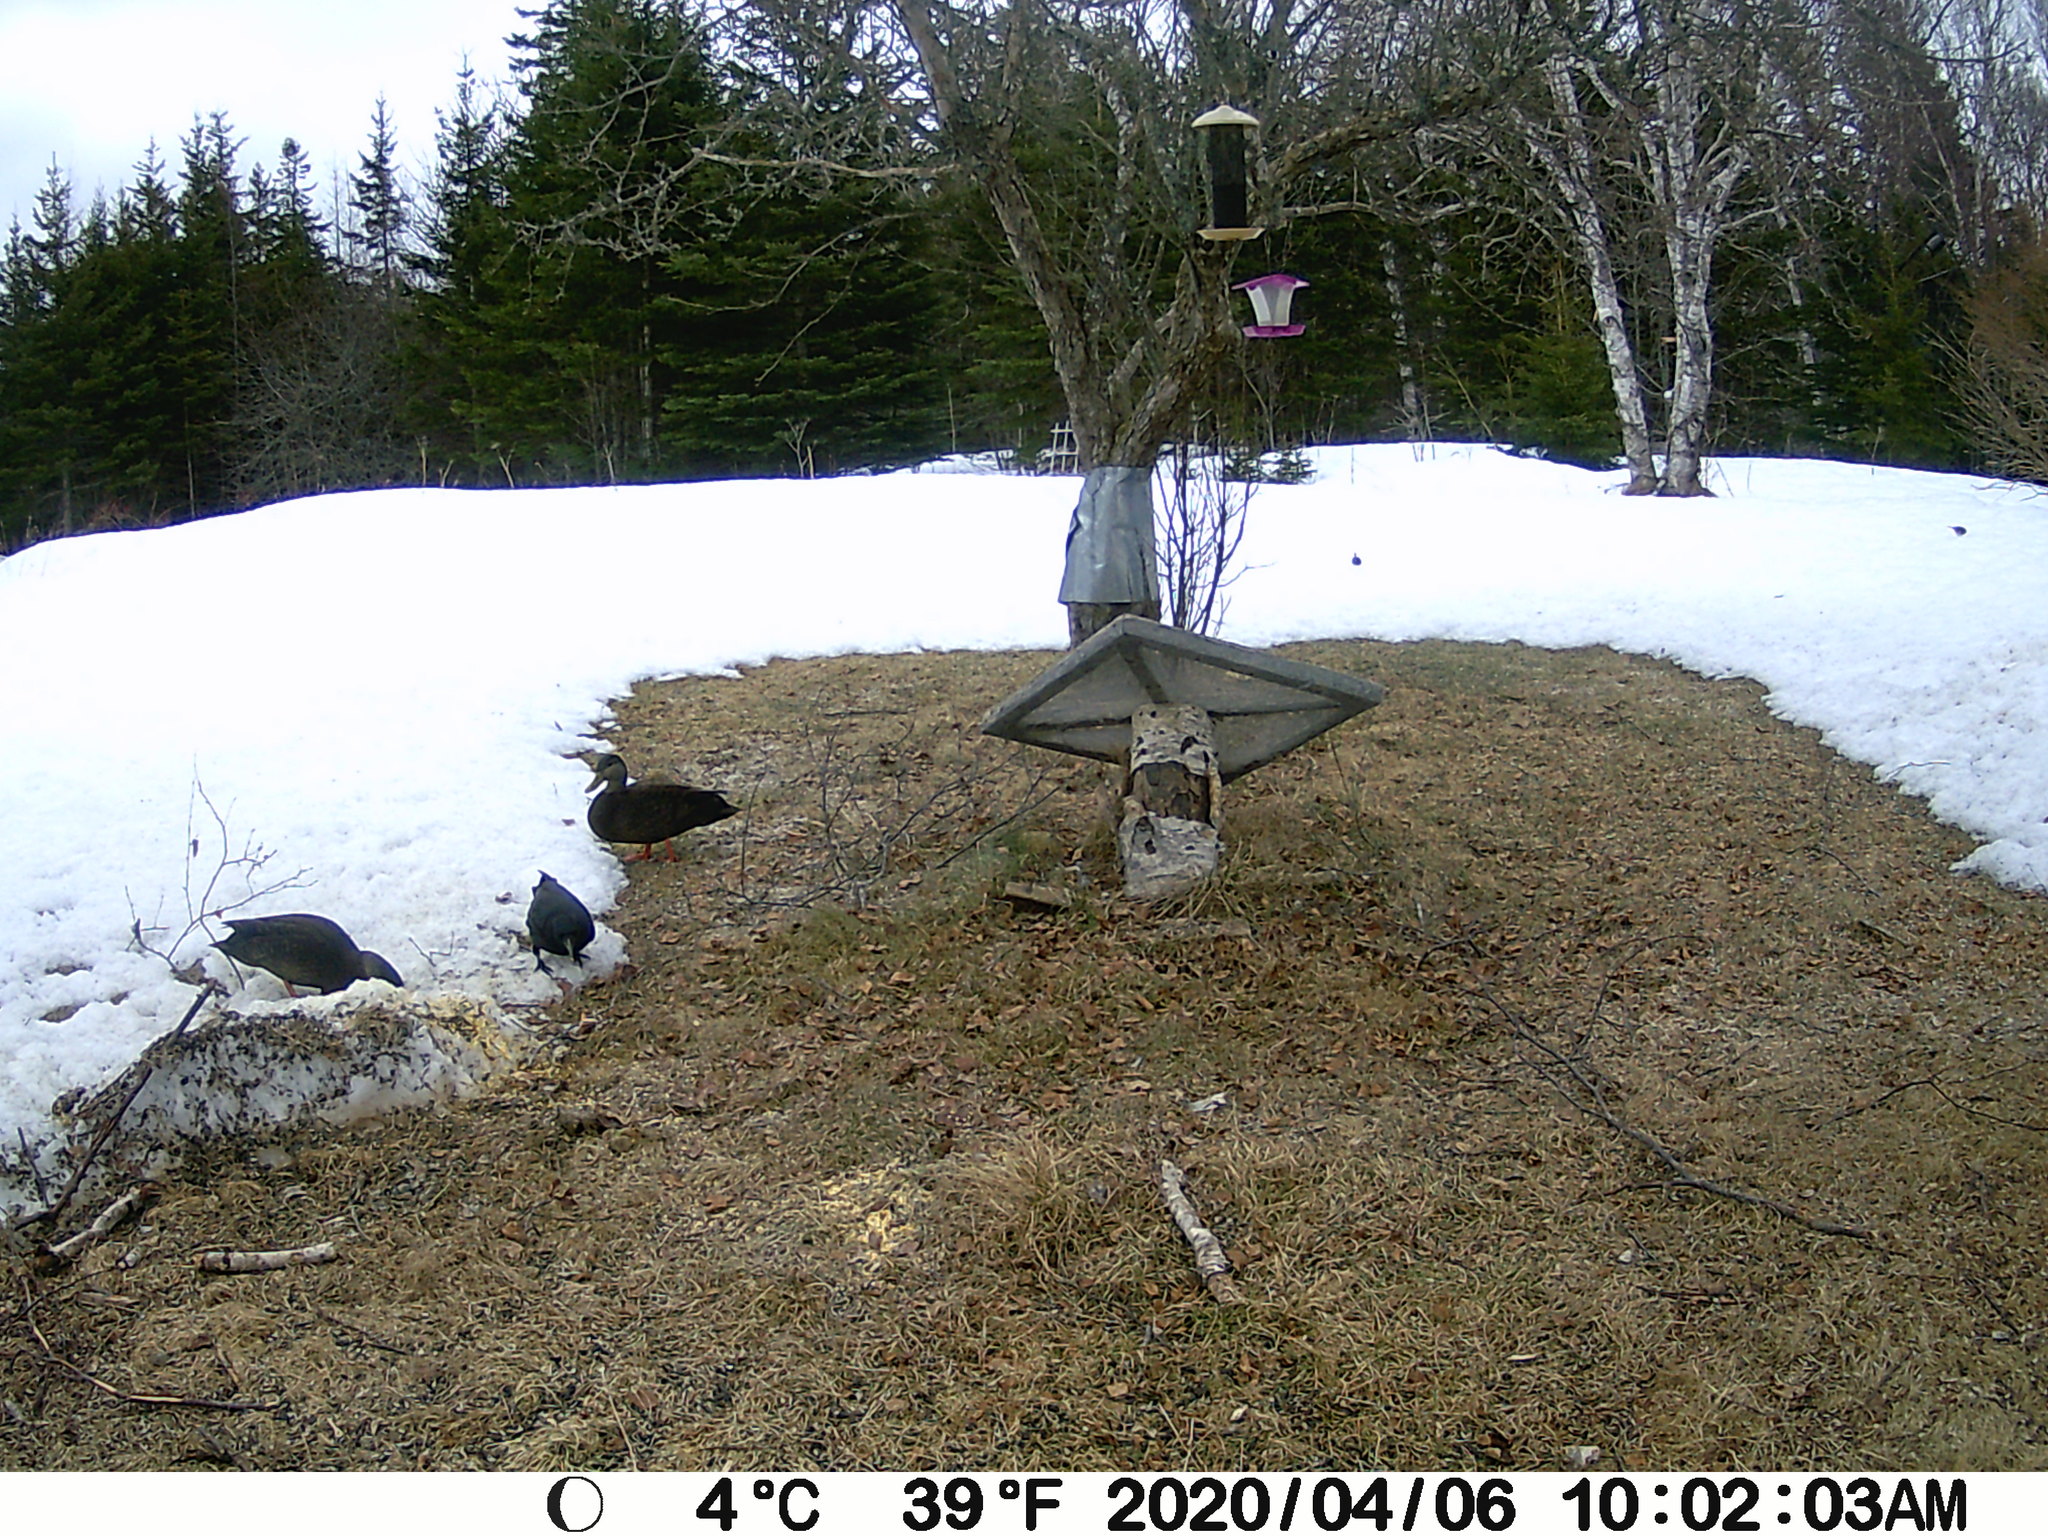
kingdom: Animalia
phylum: Chordata
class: Aves
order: Anseriformes
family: Anatidae
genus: Anas
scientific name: Anas rubripes
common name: American black duck
